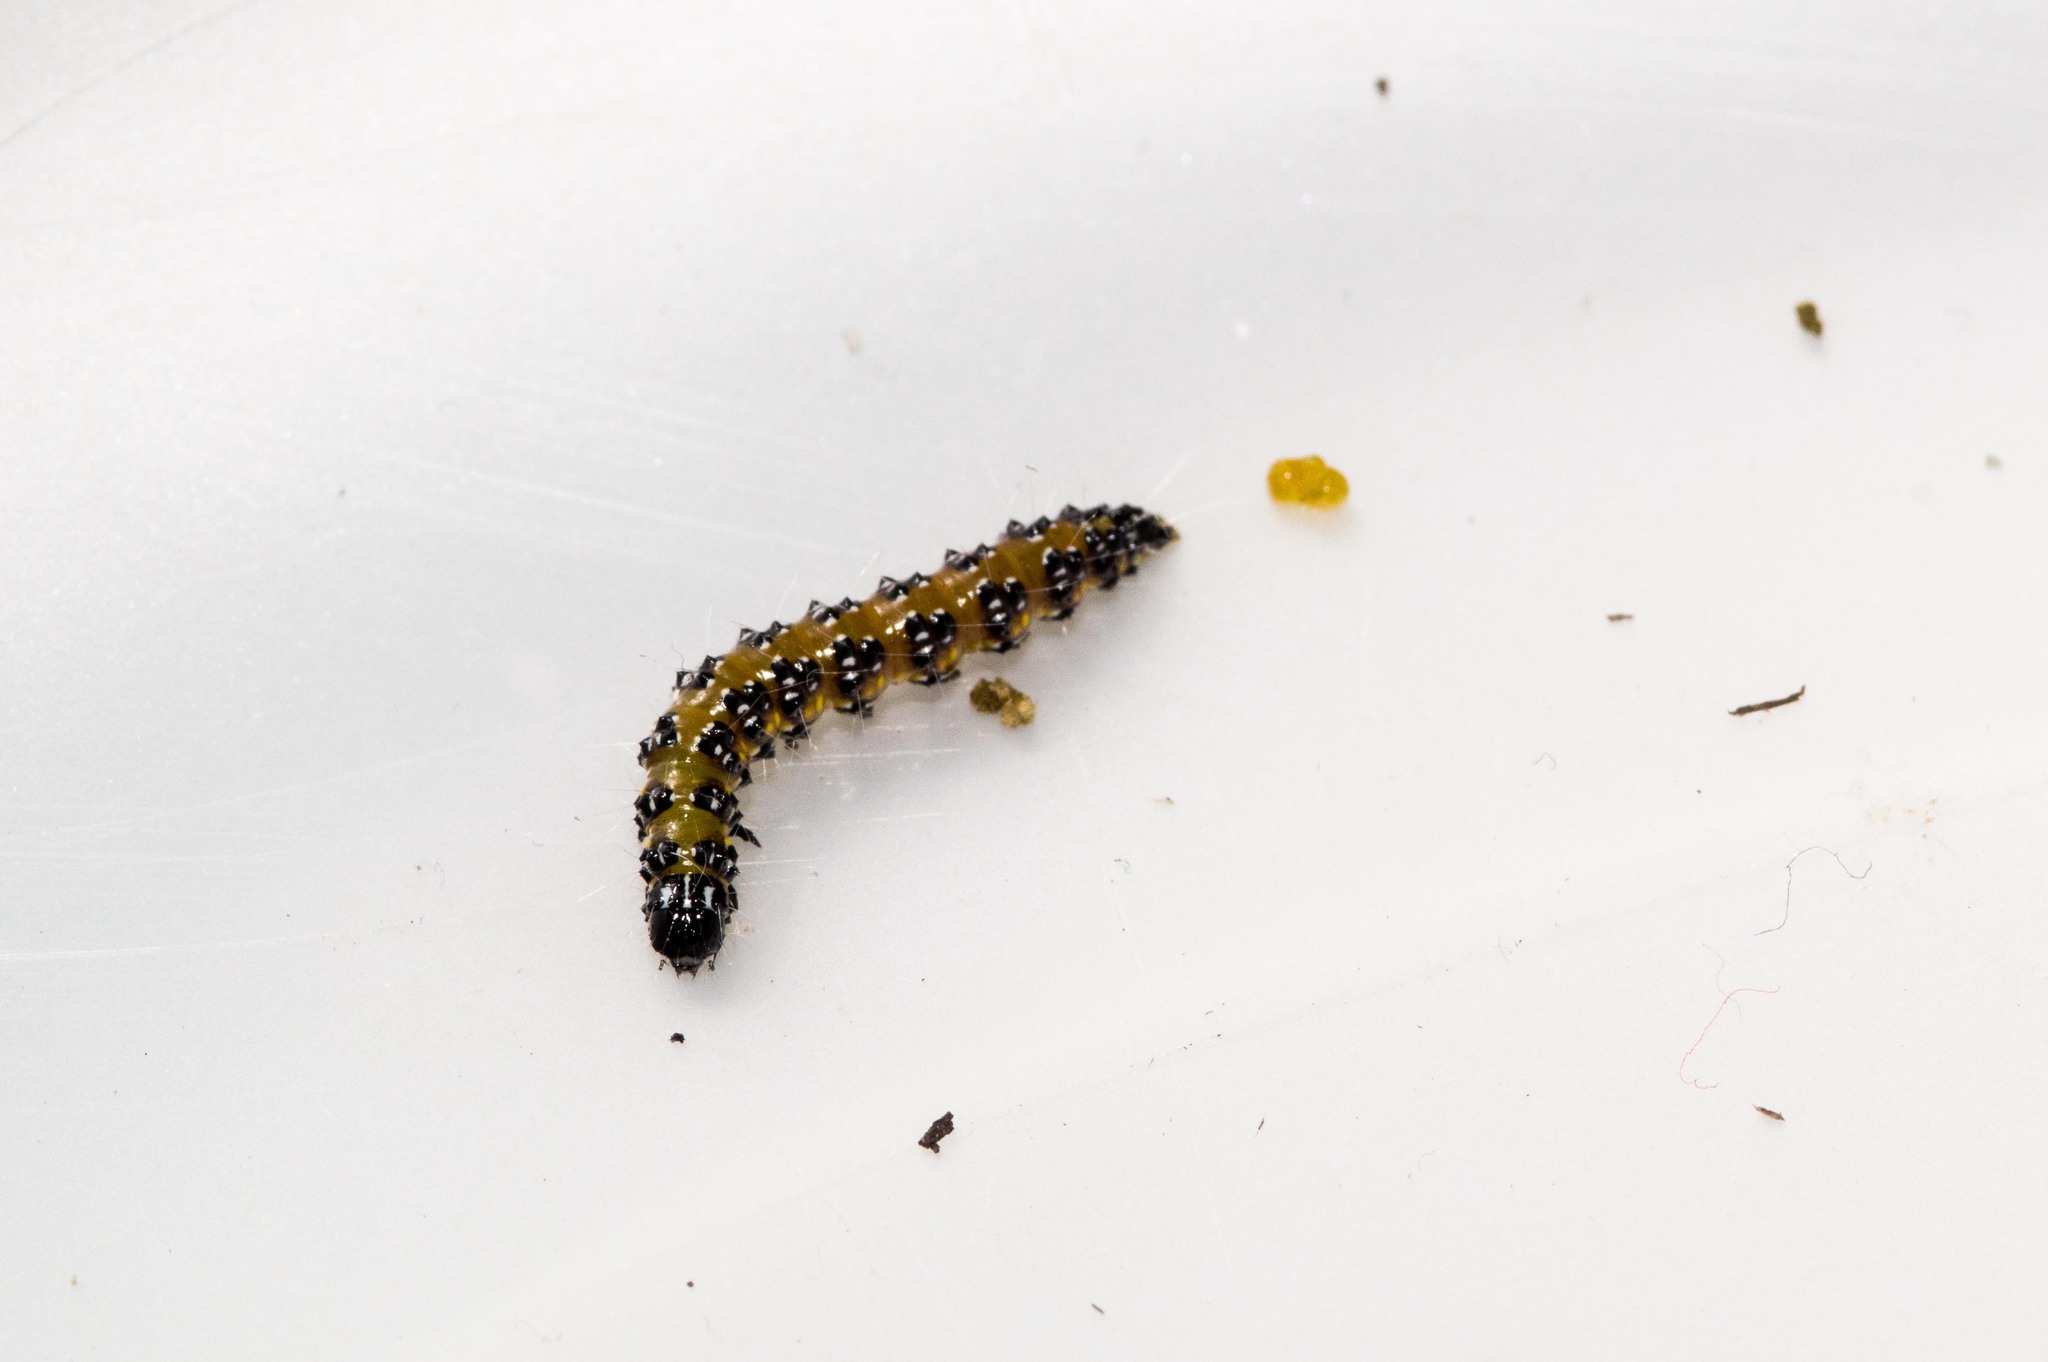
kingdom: Animalia
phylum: Arthropoda
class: Insecta
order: Lepidoptera
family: Crambidae
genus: Uresiphita
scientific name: Uresiphita reversalis
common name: Genista broom moth
